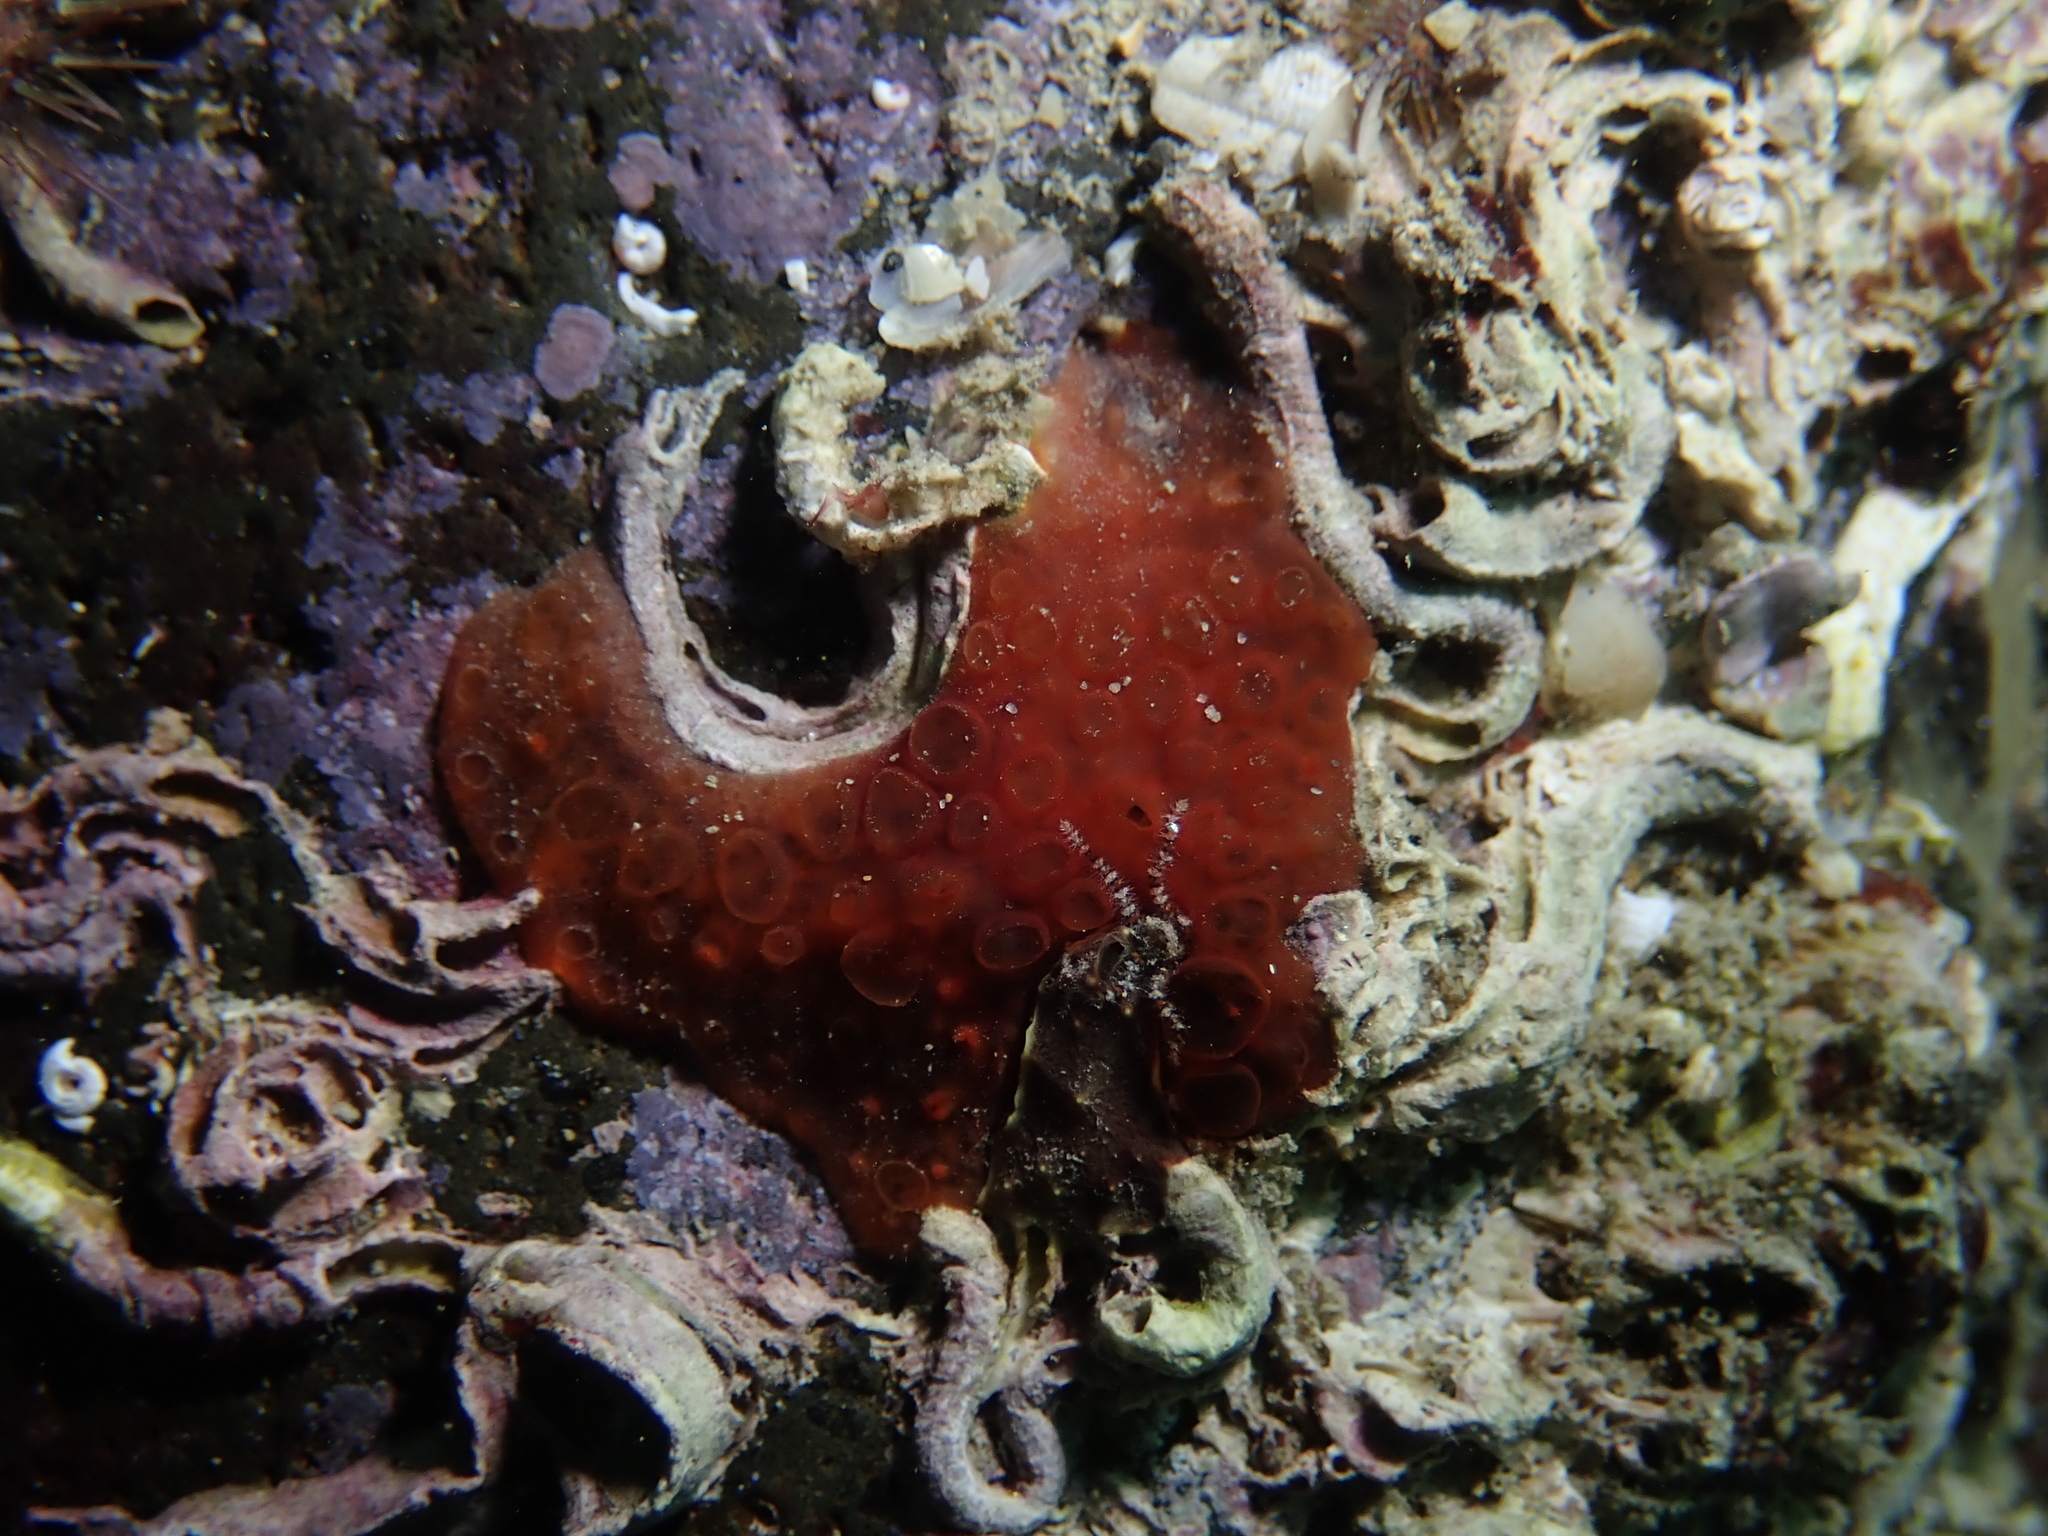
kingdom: Animalia
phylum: Porifera
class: Demospongiae
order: Poecilosclerida
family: Hymedesmiidae
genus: Phorbas
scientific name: Phorbas topsenti
